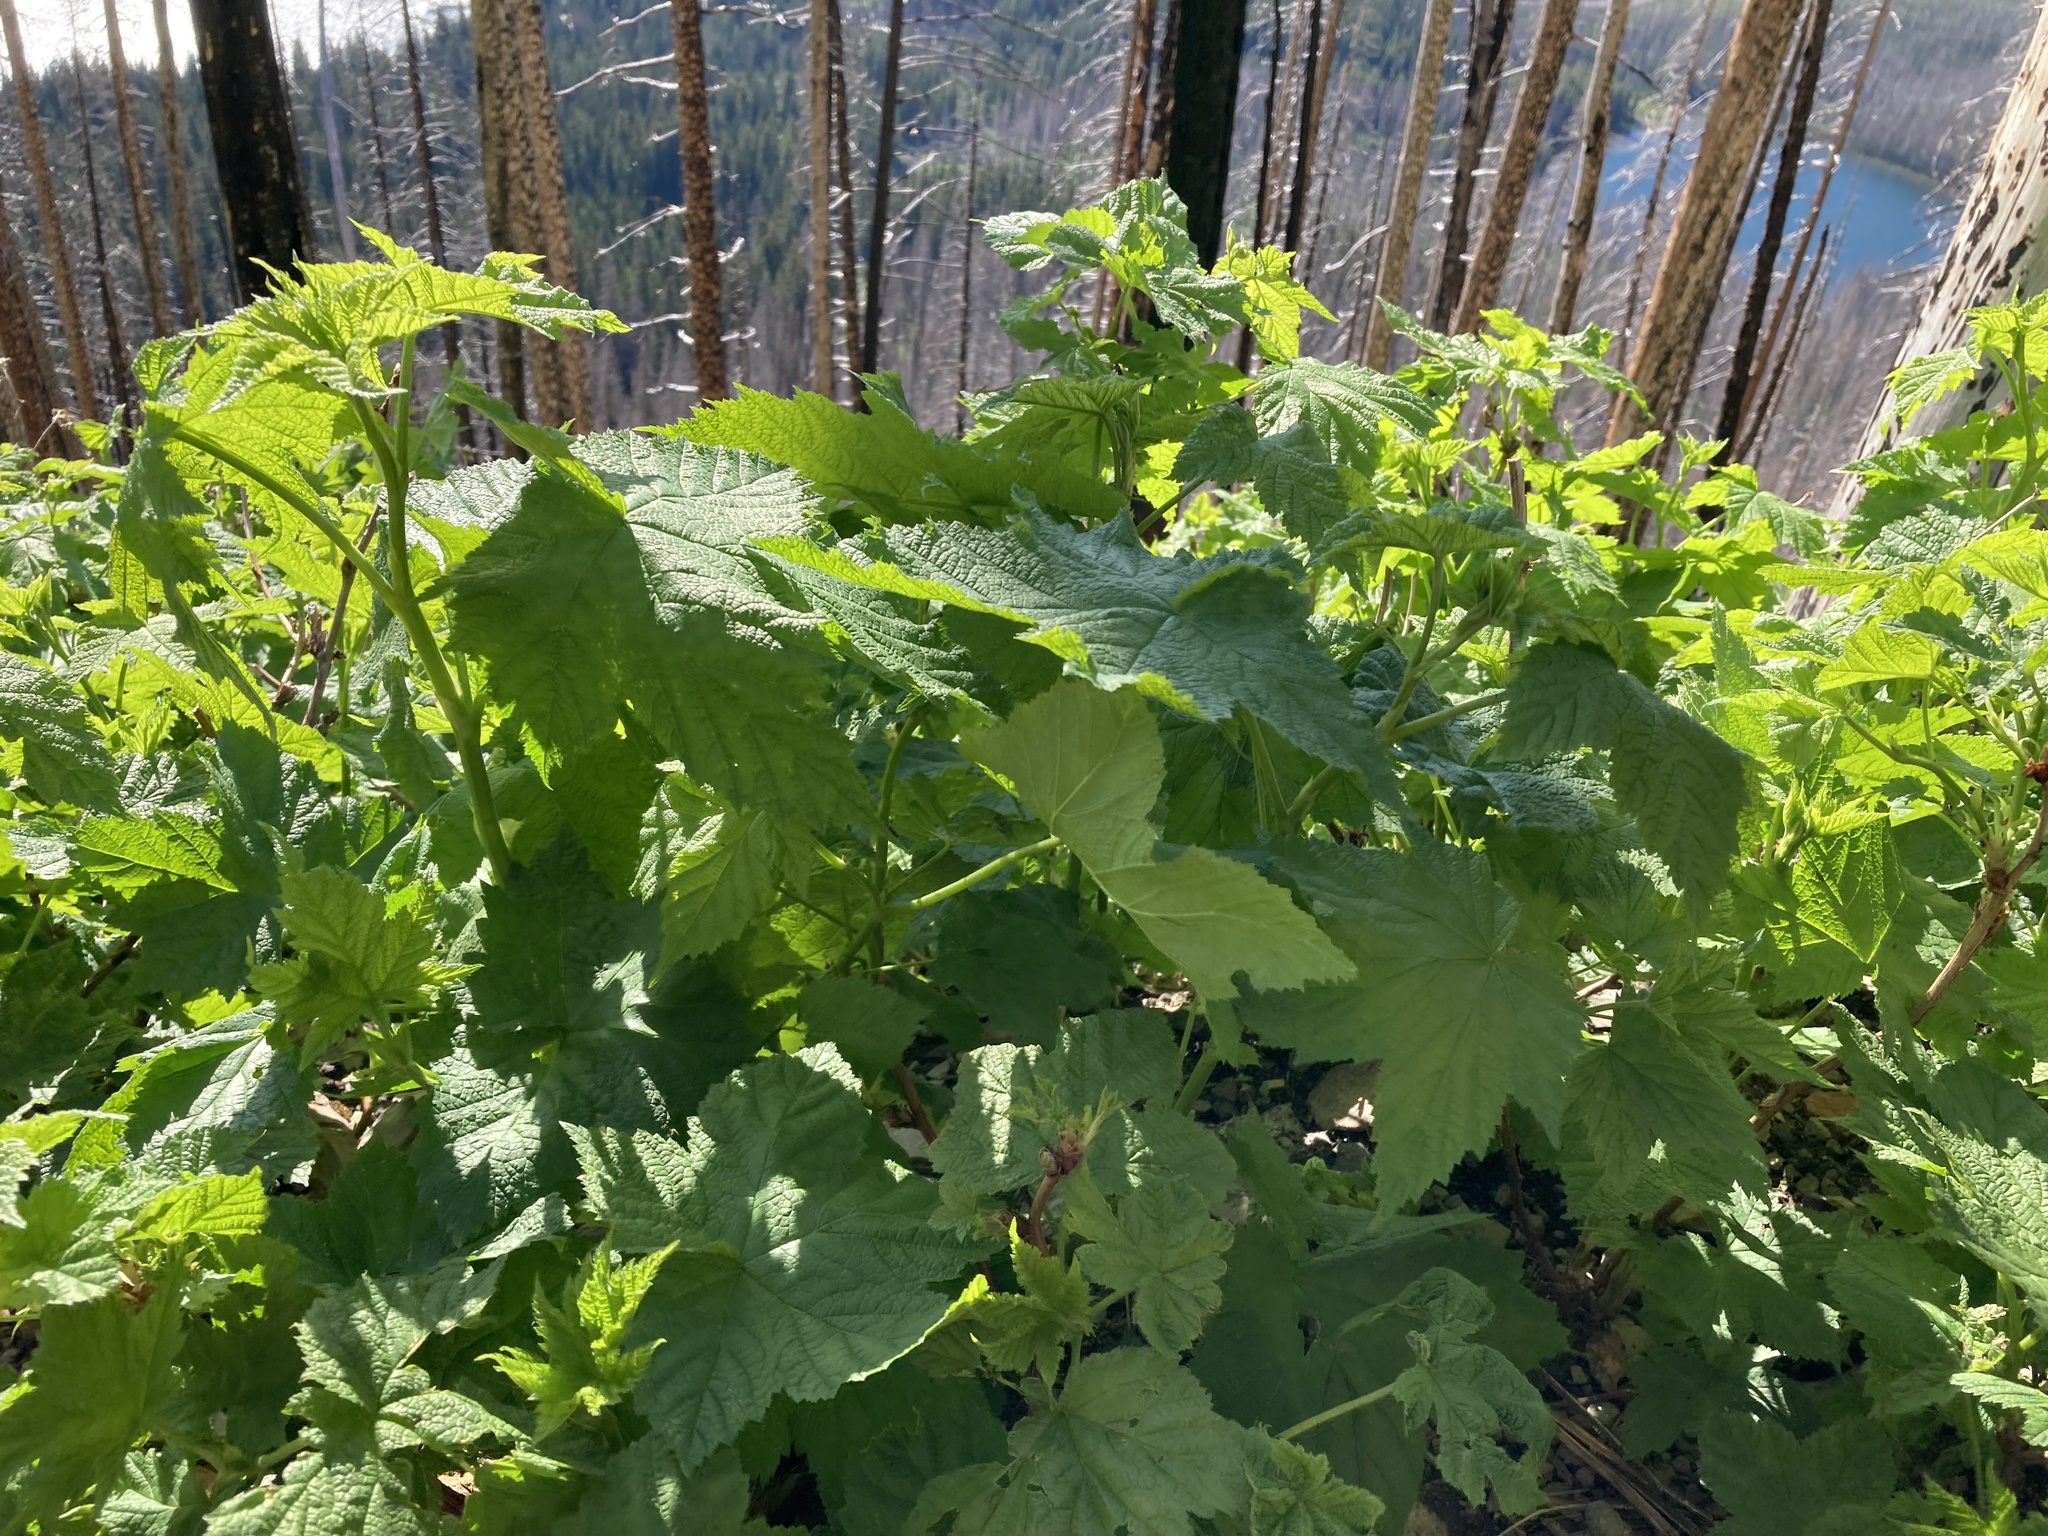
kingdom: Plantae
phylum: Tracheophyta
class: Magnoliopsida
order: Rosales
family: Rosaceae
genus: Rubus
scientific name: Rubus parviflorus
